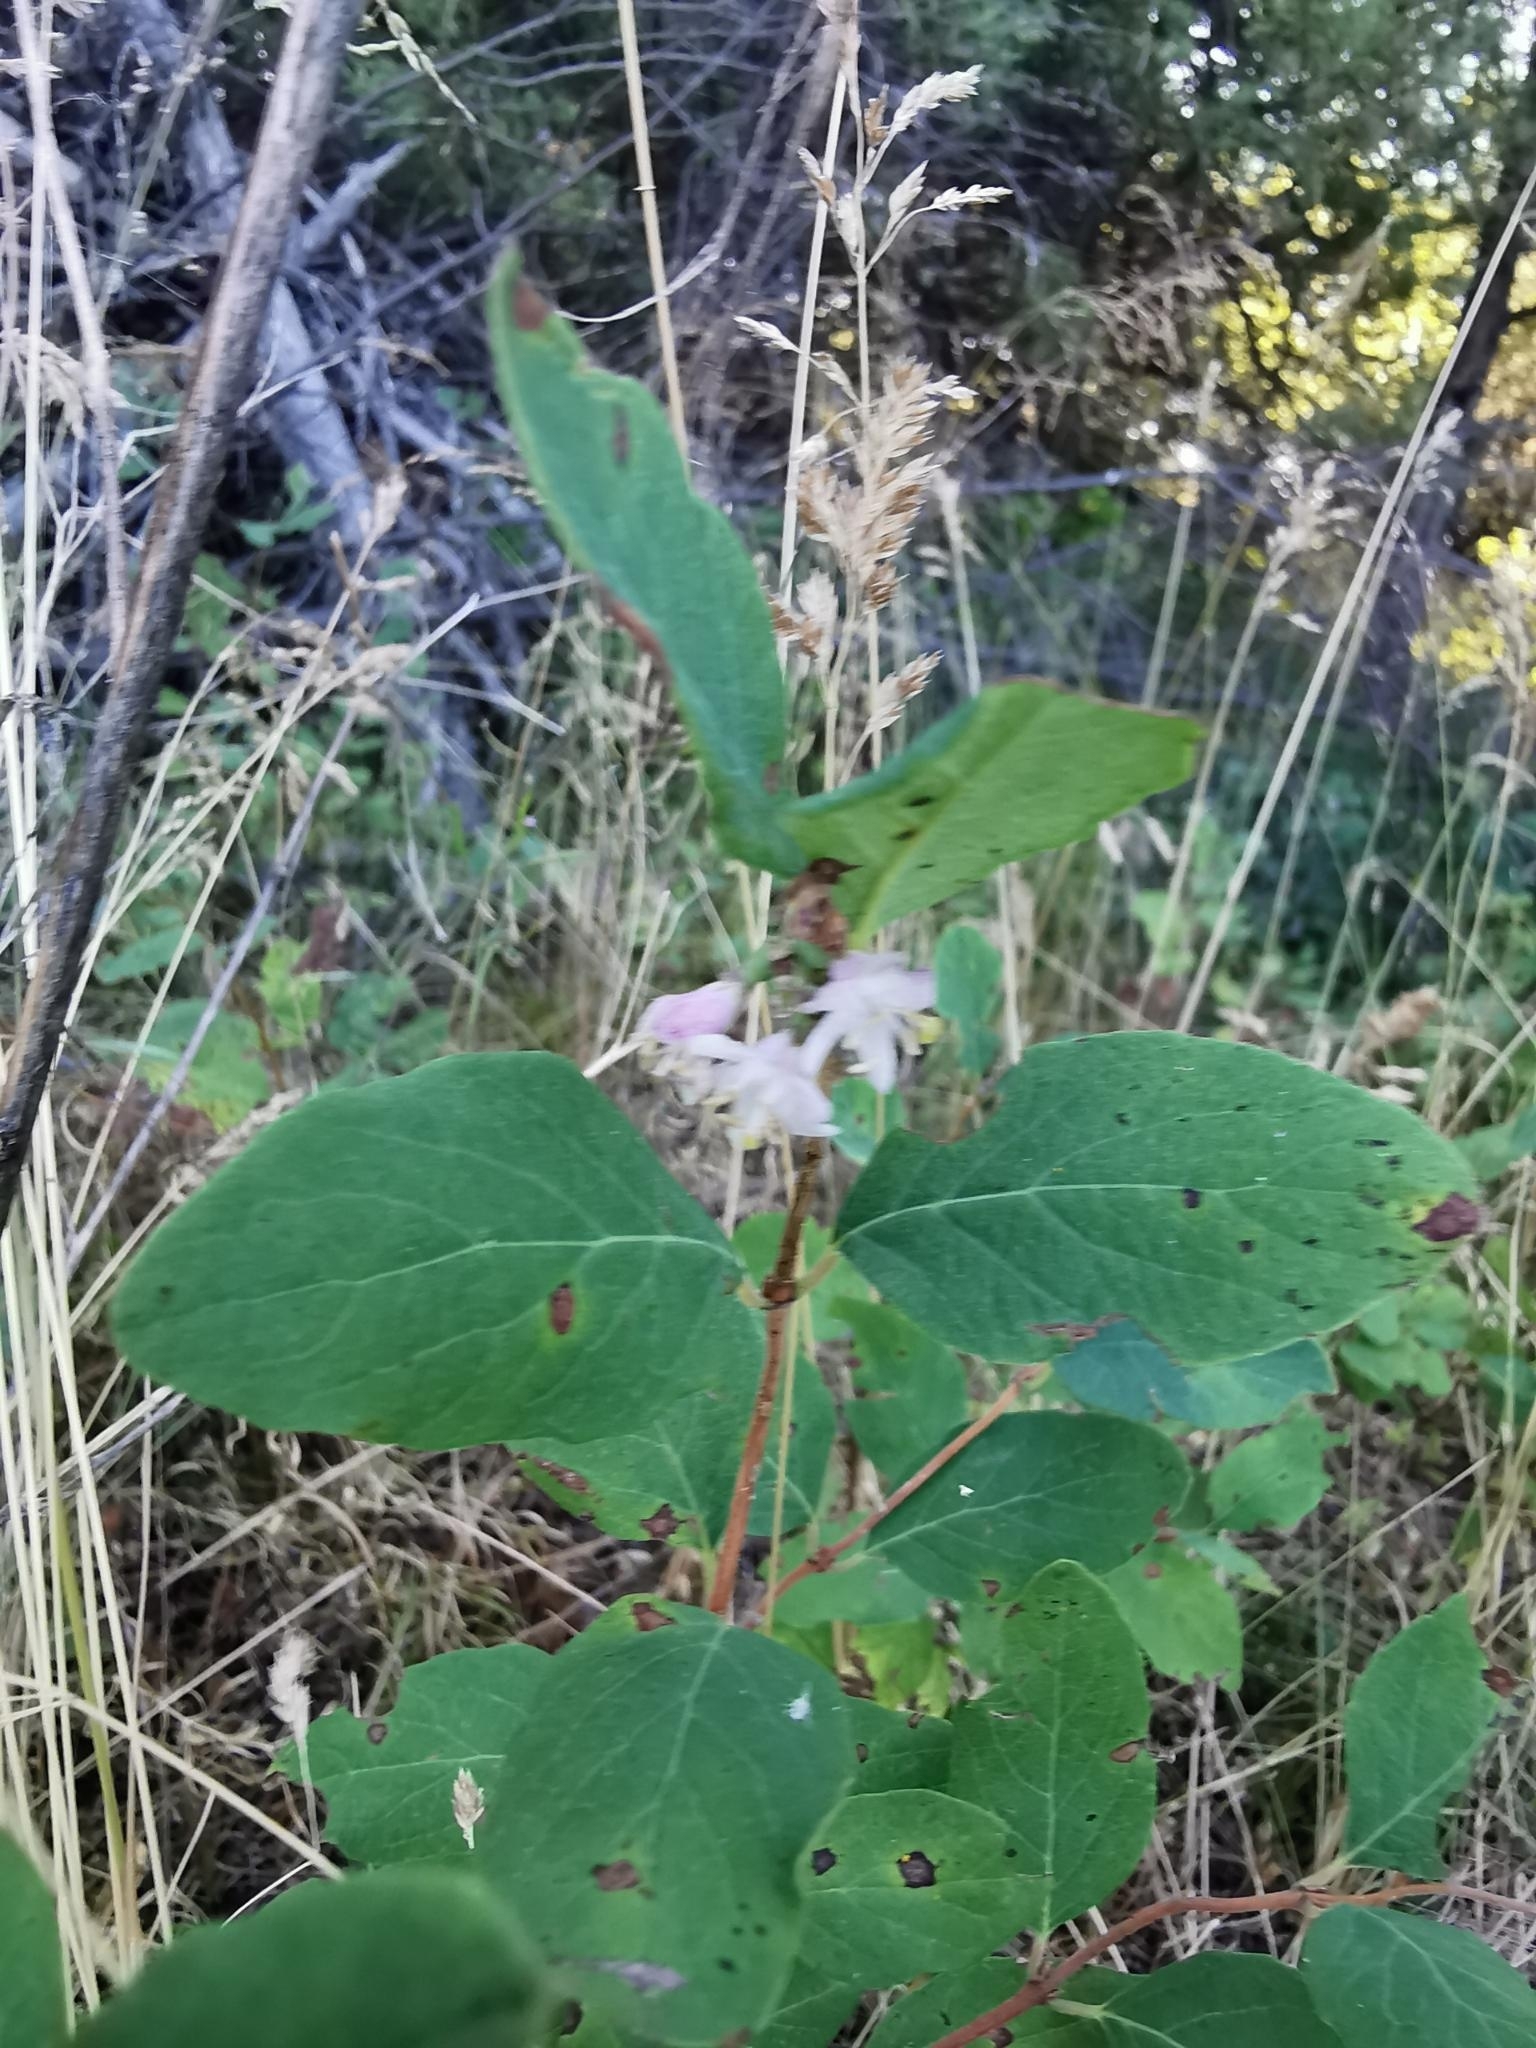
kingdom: Plantae
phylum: Tracheophyta
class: Magnoliopsida
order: Malpighiales
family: Salicaceae
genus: Populus
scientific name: Populus tremuloides
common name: Quaking aspen
